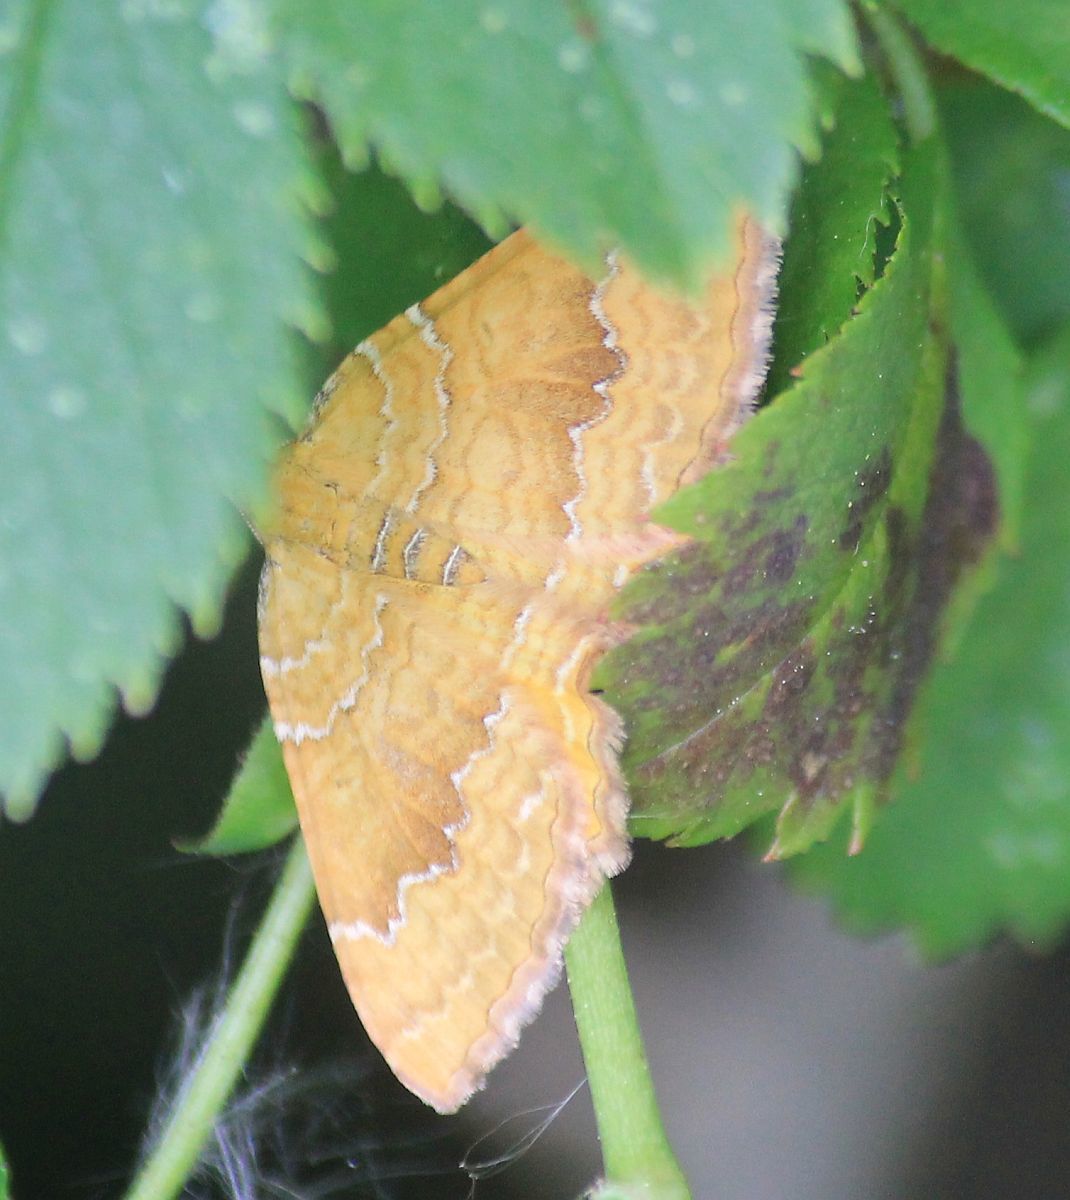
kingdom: Animalia
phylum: Arthropoda
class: Insecta
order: Lepidoptera
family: Geometridae
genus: Camptogramma
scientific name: Camptogramma bilineata
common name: Yellow shell
